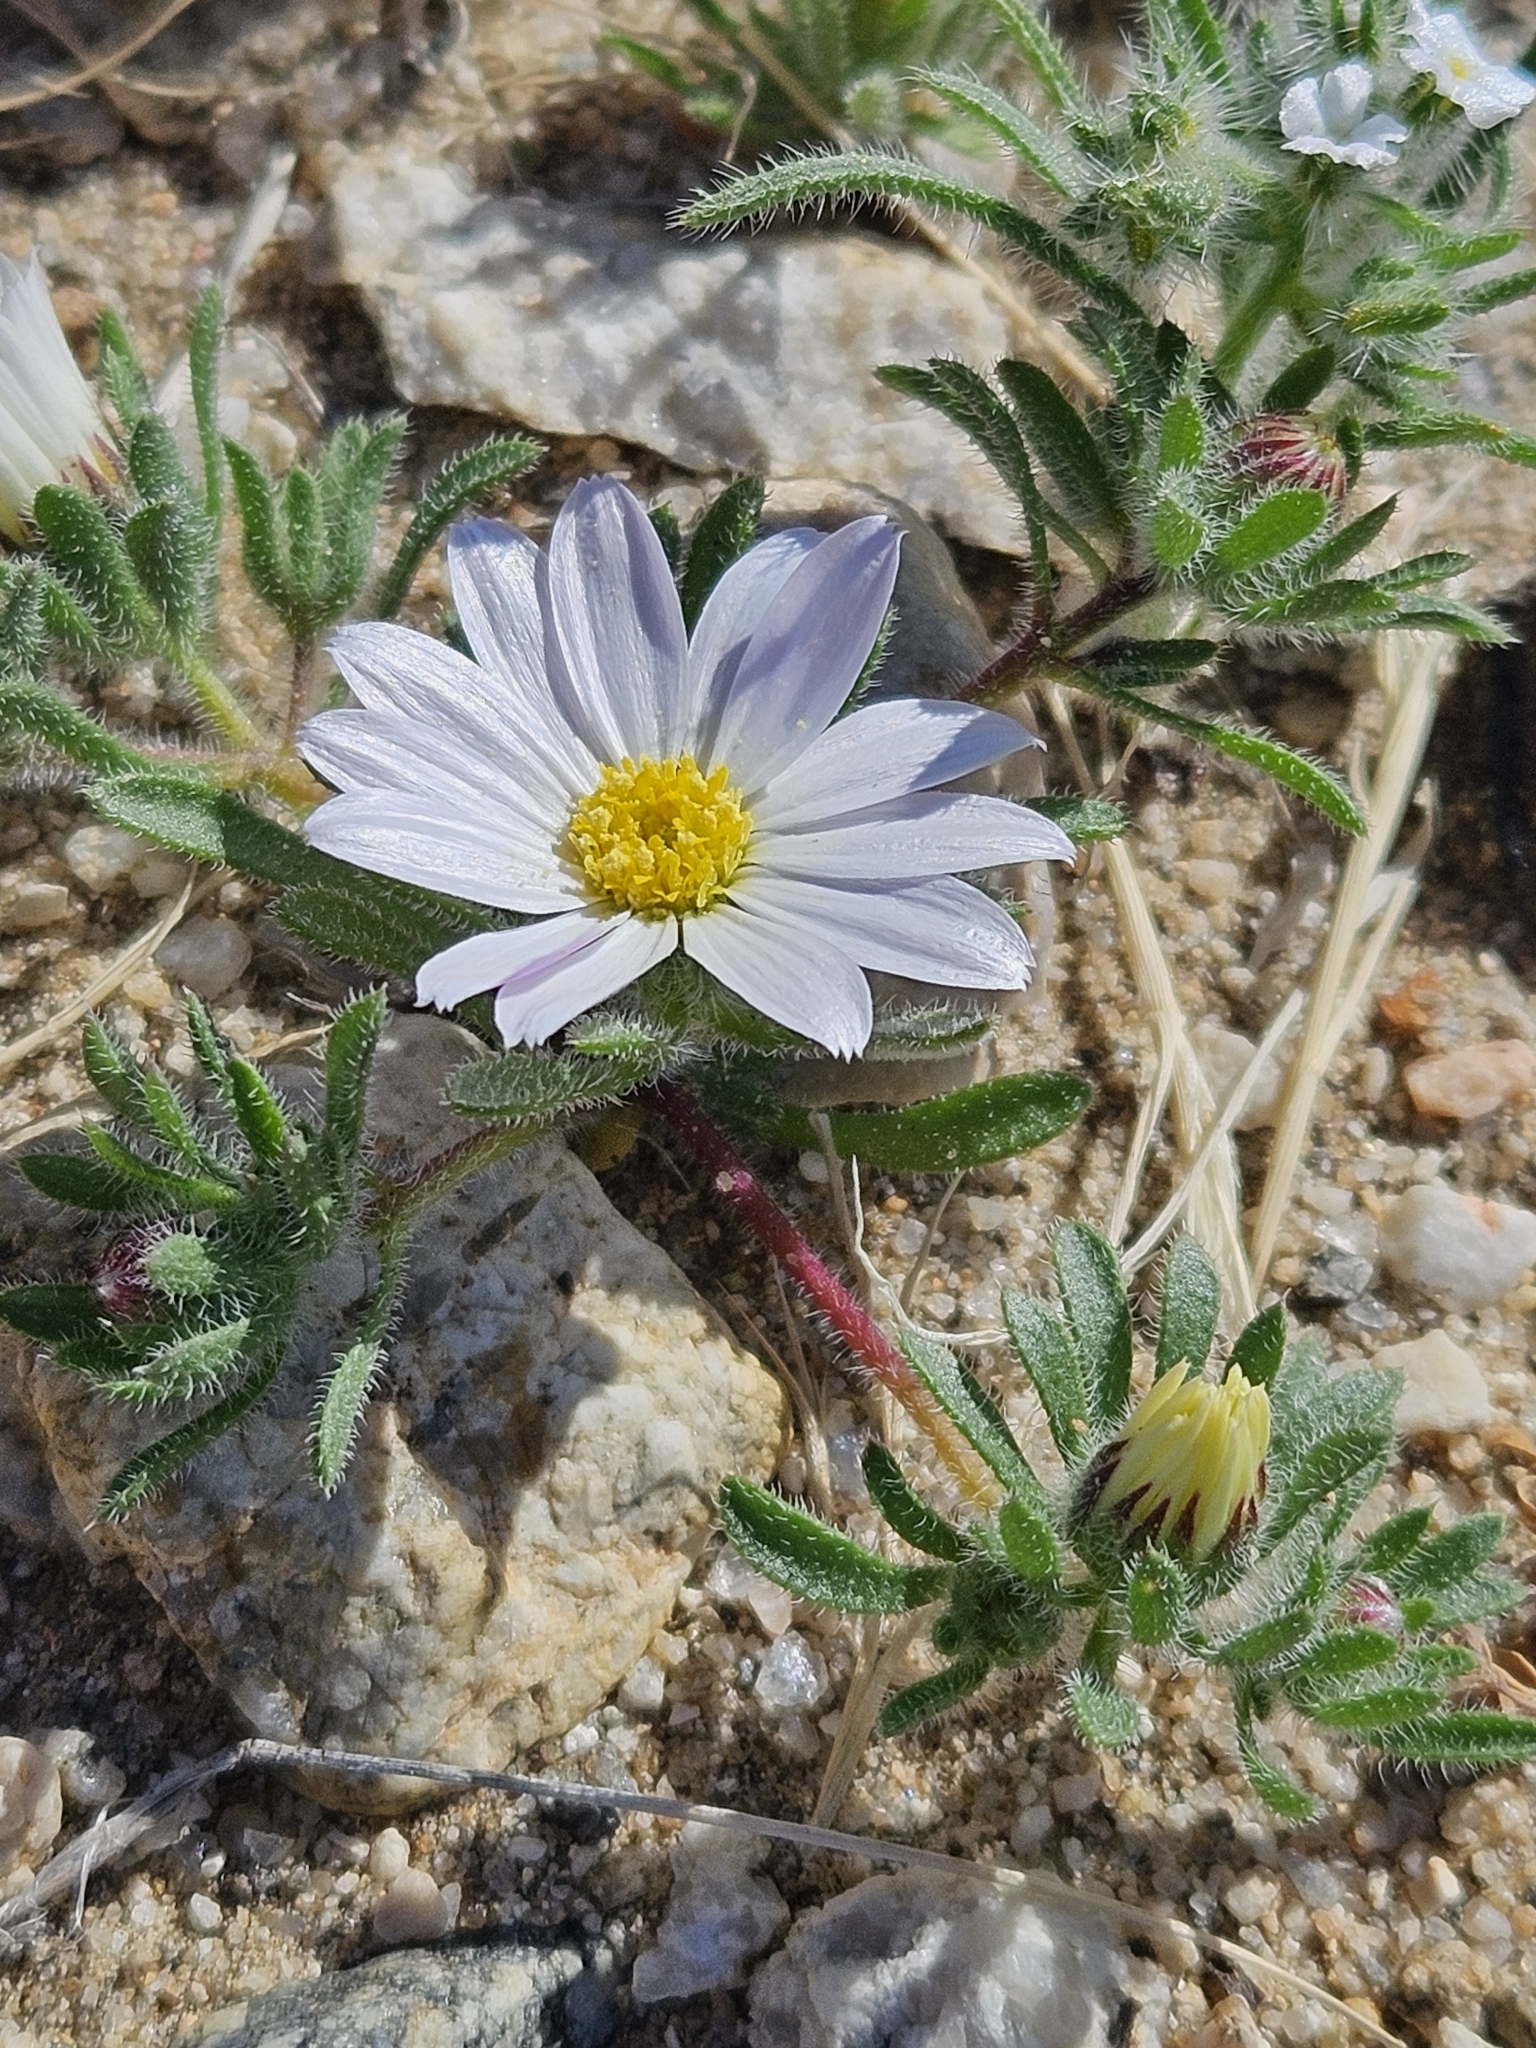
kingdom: Plantae
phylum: Tracheophyta
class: Magnoliopsida
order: Asterales
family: Asteraceae
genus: Monoptilon
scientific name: Monoptilon bellioides
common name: Bristly desertstar
